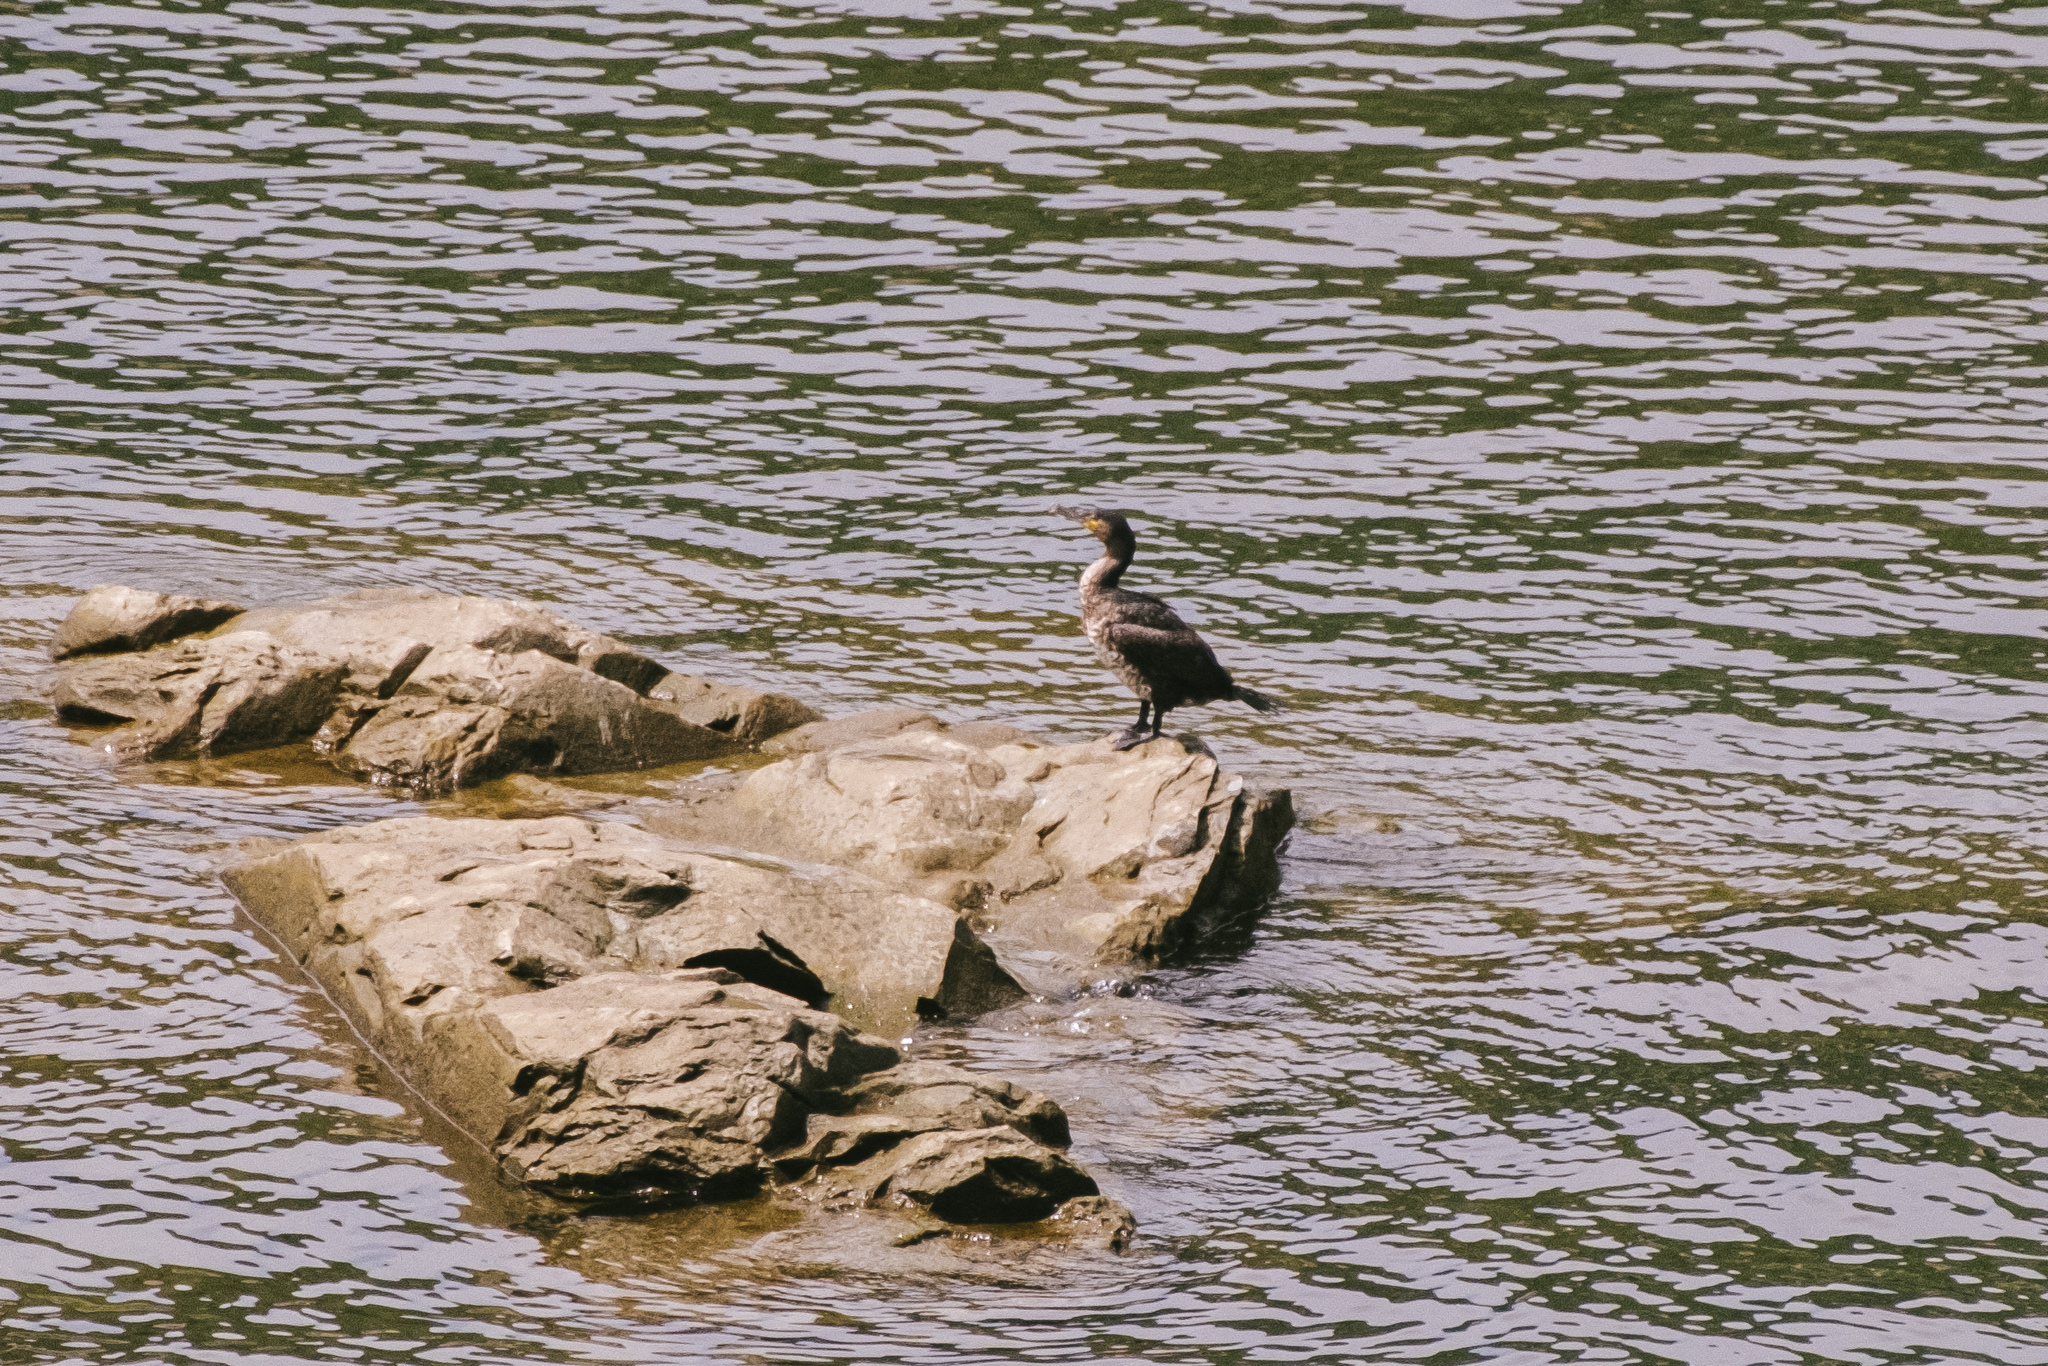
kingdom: Animalia
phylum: Chordata
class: Aves
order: Suliformes
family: Phalacrocoracidae
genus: Phalacrocorax
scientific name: Phalacrocorax carbo
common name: Great cormorant
